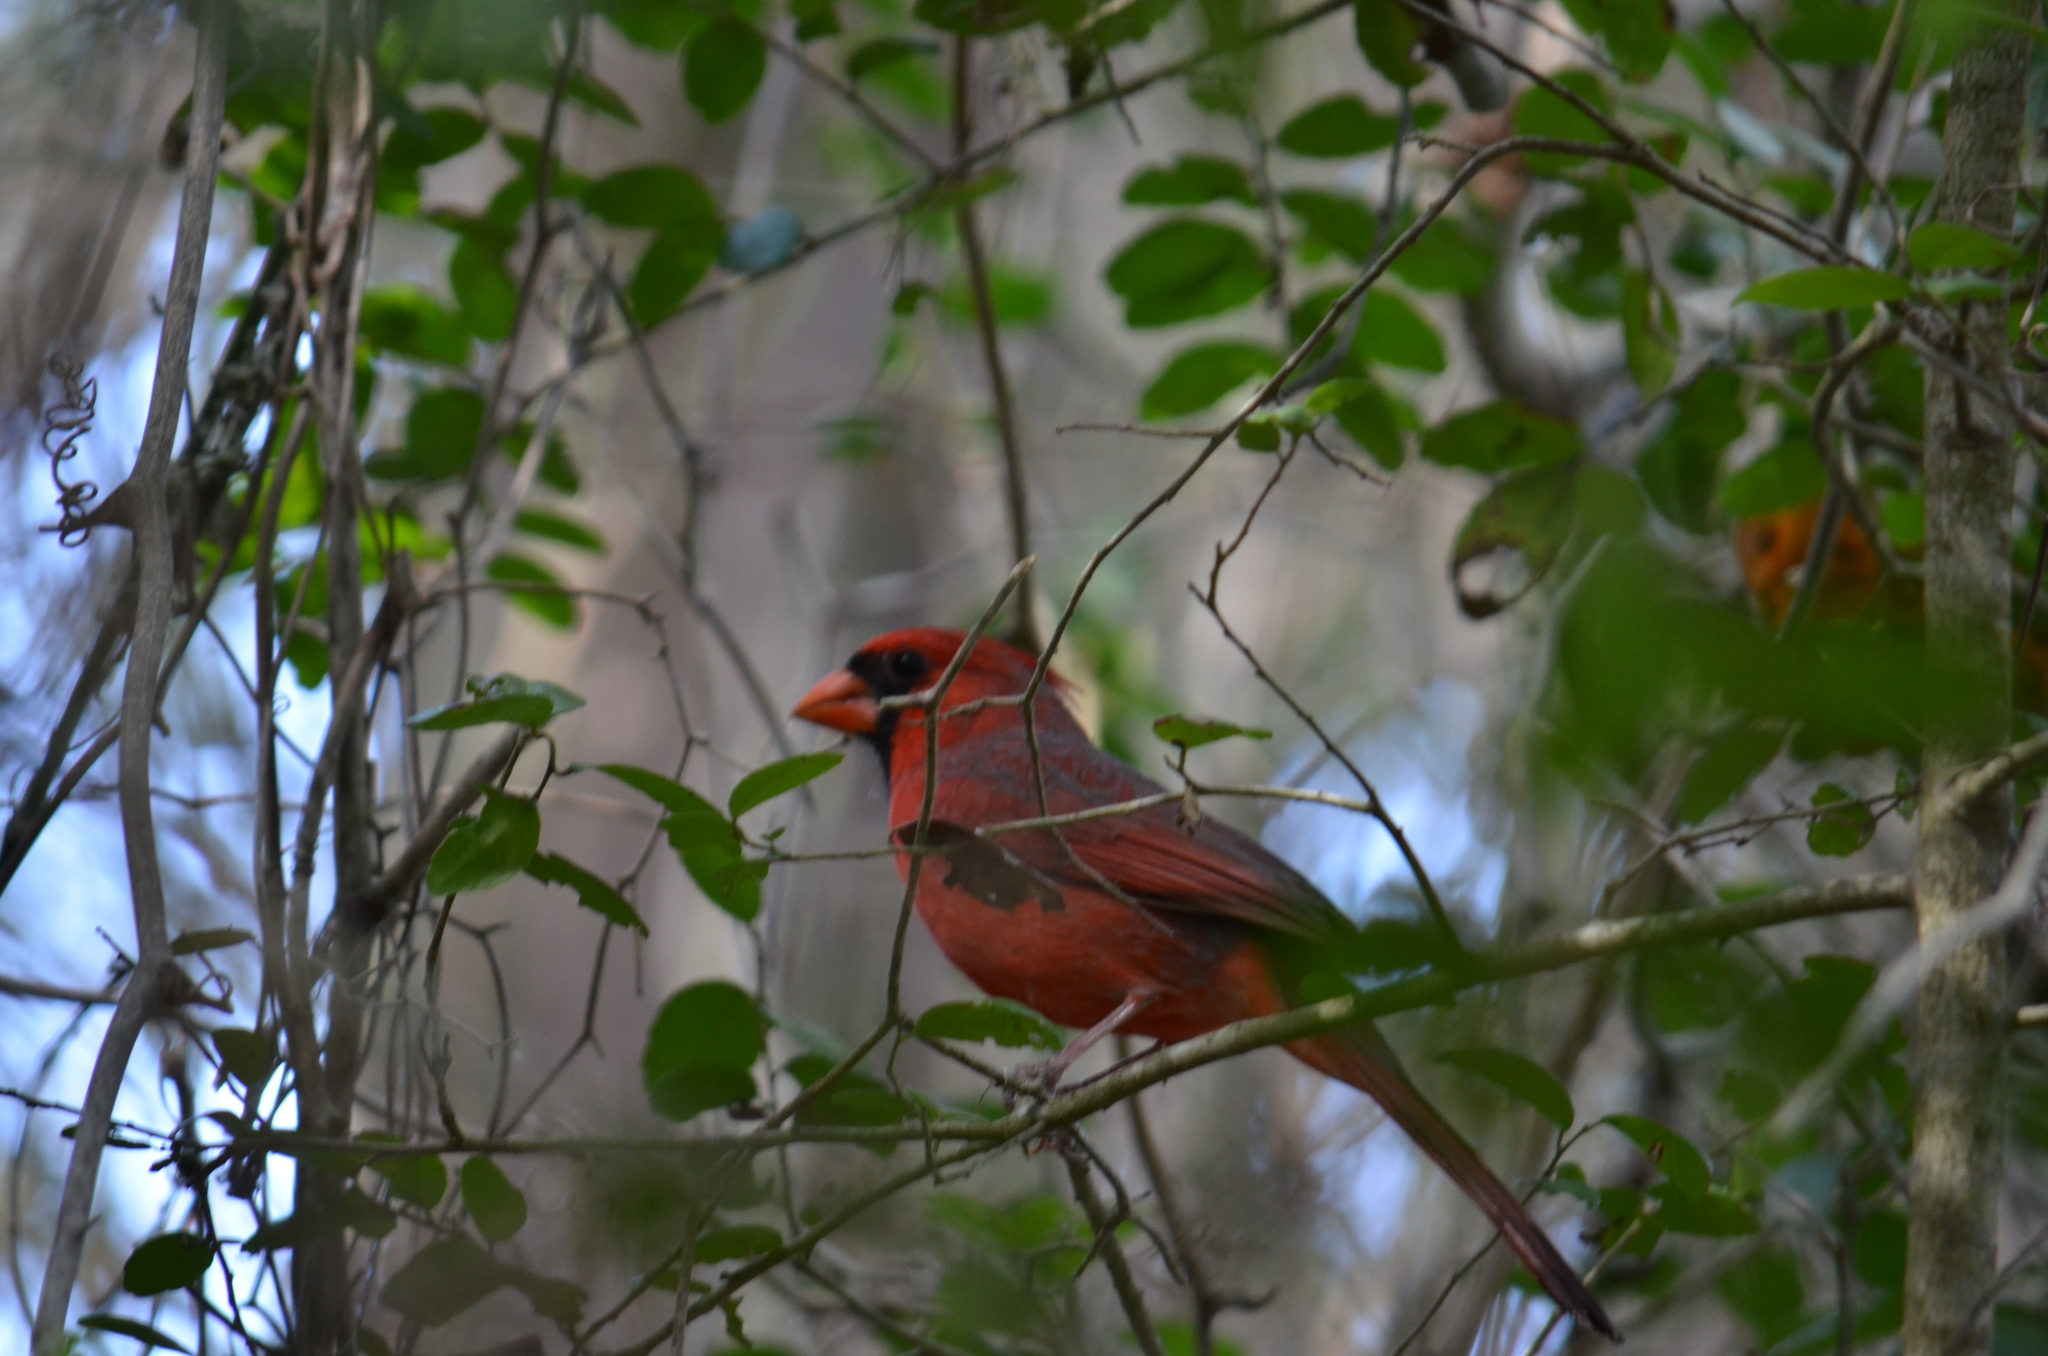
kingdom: Animalia
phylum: Chordata
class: Aves
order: Passeriformes
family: Cardinalidae
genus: Cardinalis
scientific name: Cardinalis cardinalis
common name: Northern cardinal
